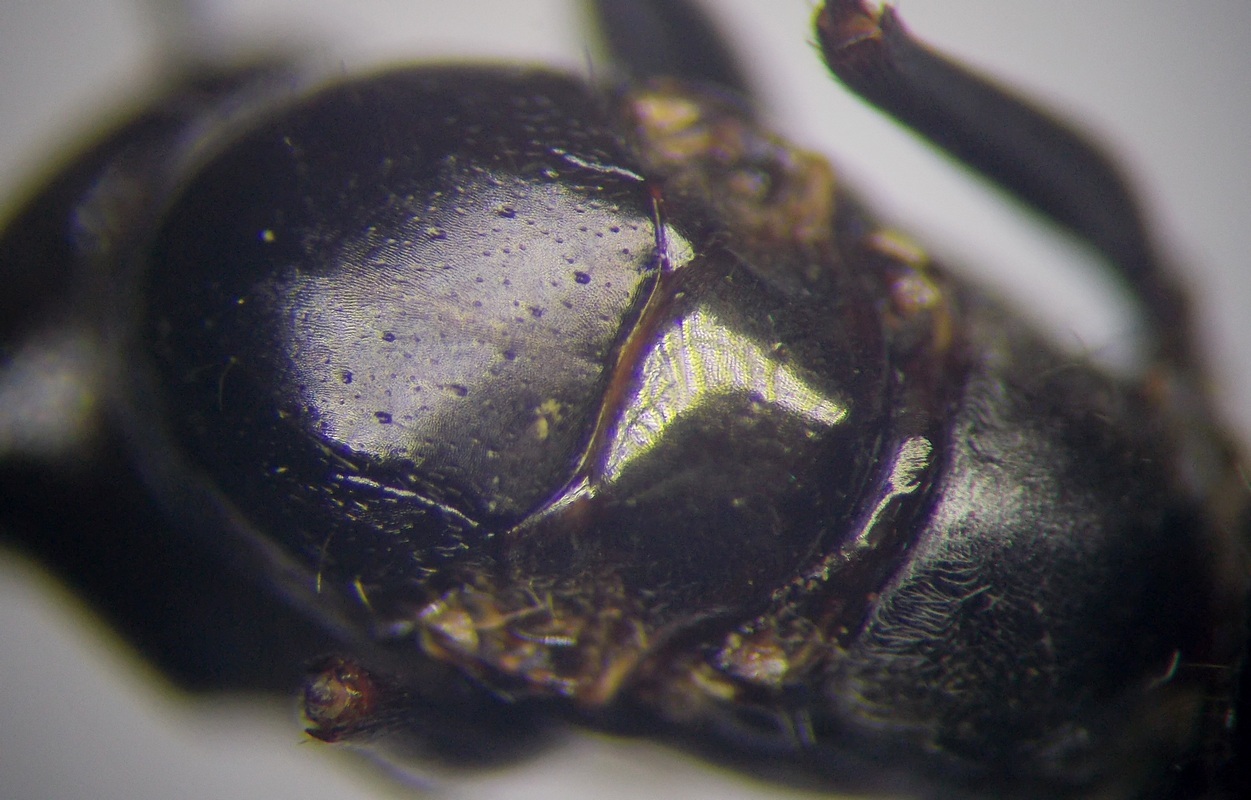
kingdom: Animalia
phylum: Arthropoda
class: Insecta
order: Hymenoptera
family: Formicidae
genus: Cataglyphis
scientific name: Cataglyphis aenescens
